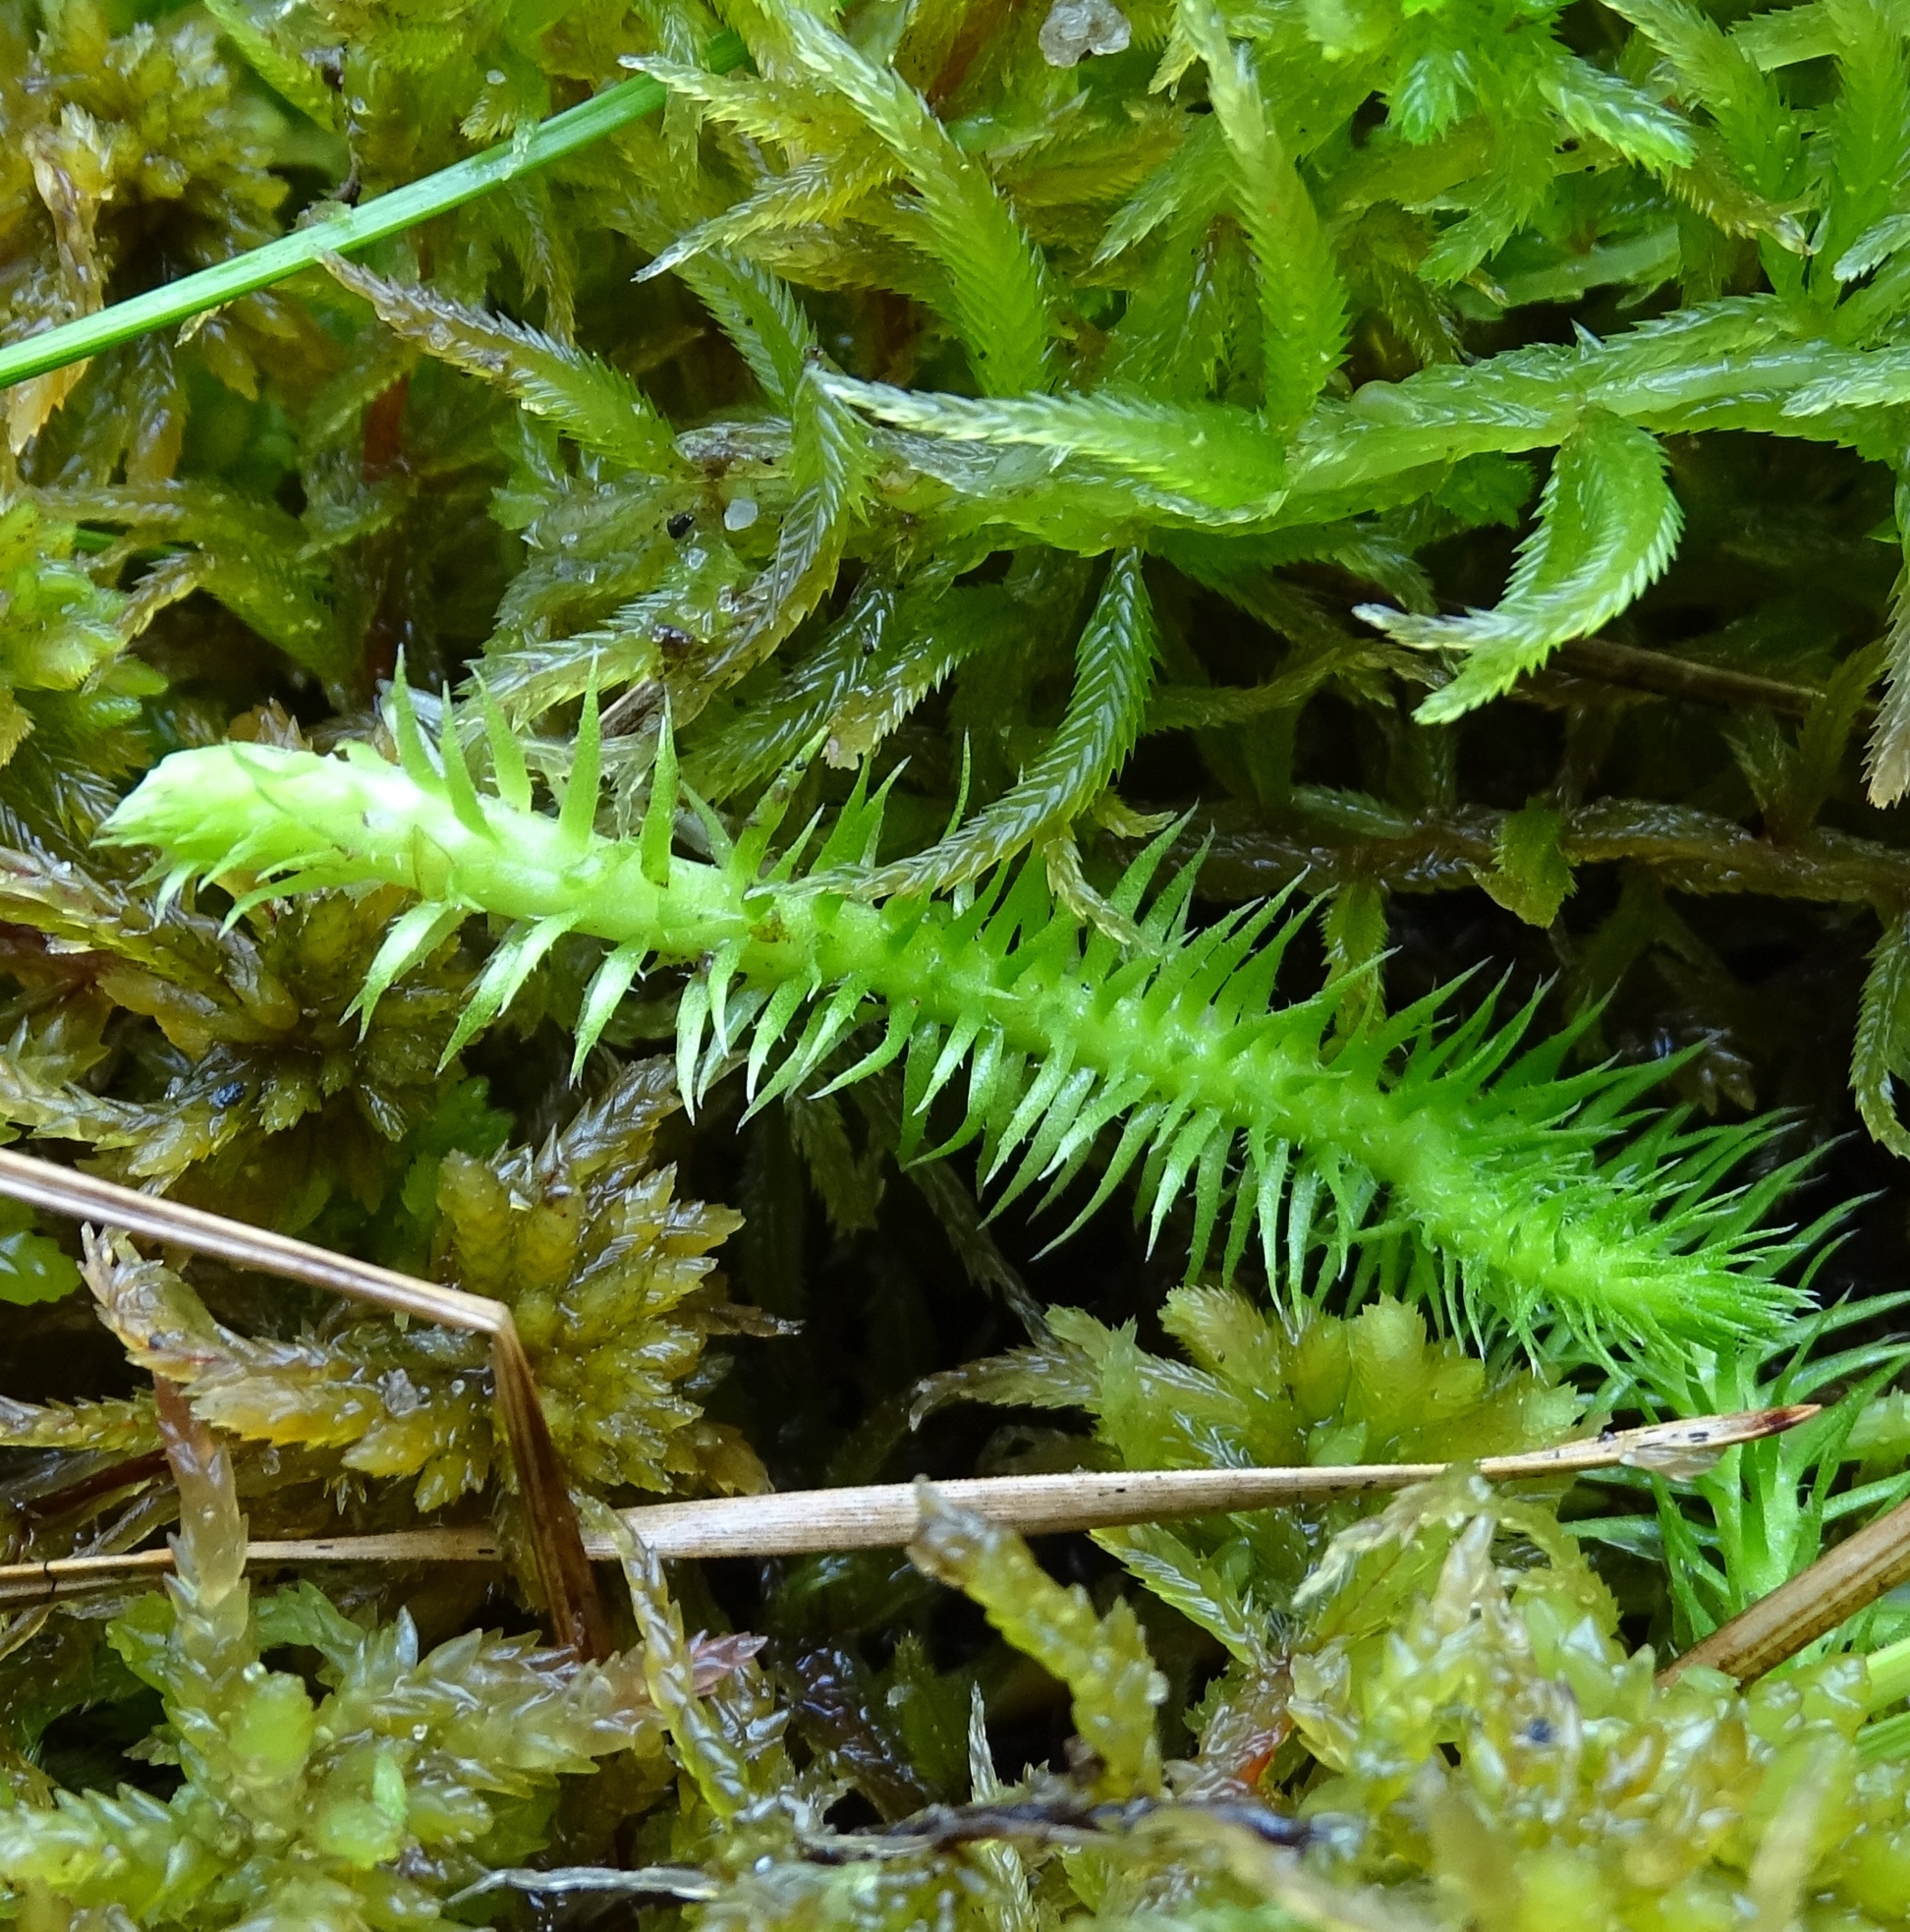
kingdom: Plantae
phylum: Tracheophyta
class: Lycopodiopsida
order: Lycopodiales
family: Lycopodiaceae
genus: Lycopodiella
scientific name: Lycopodiella alopecuroides
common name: Foxtail clubmoss
